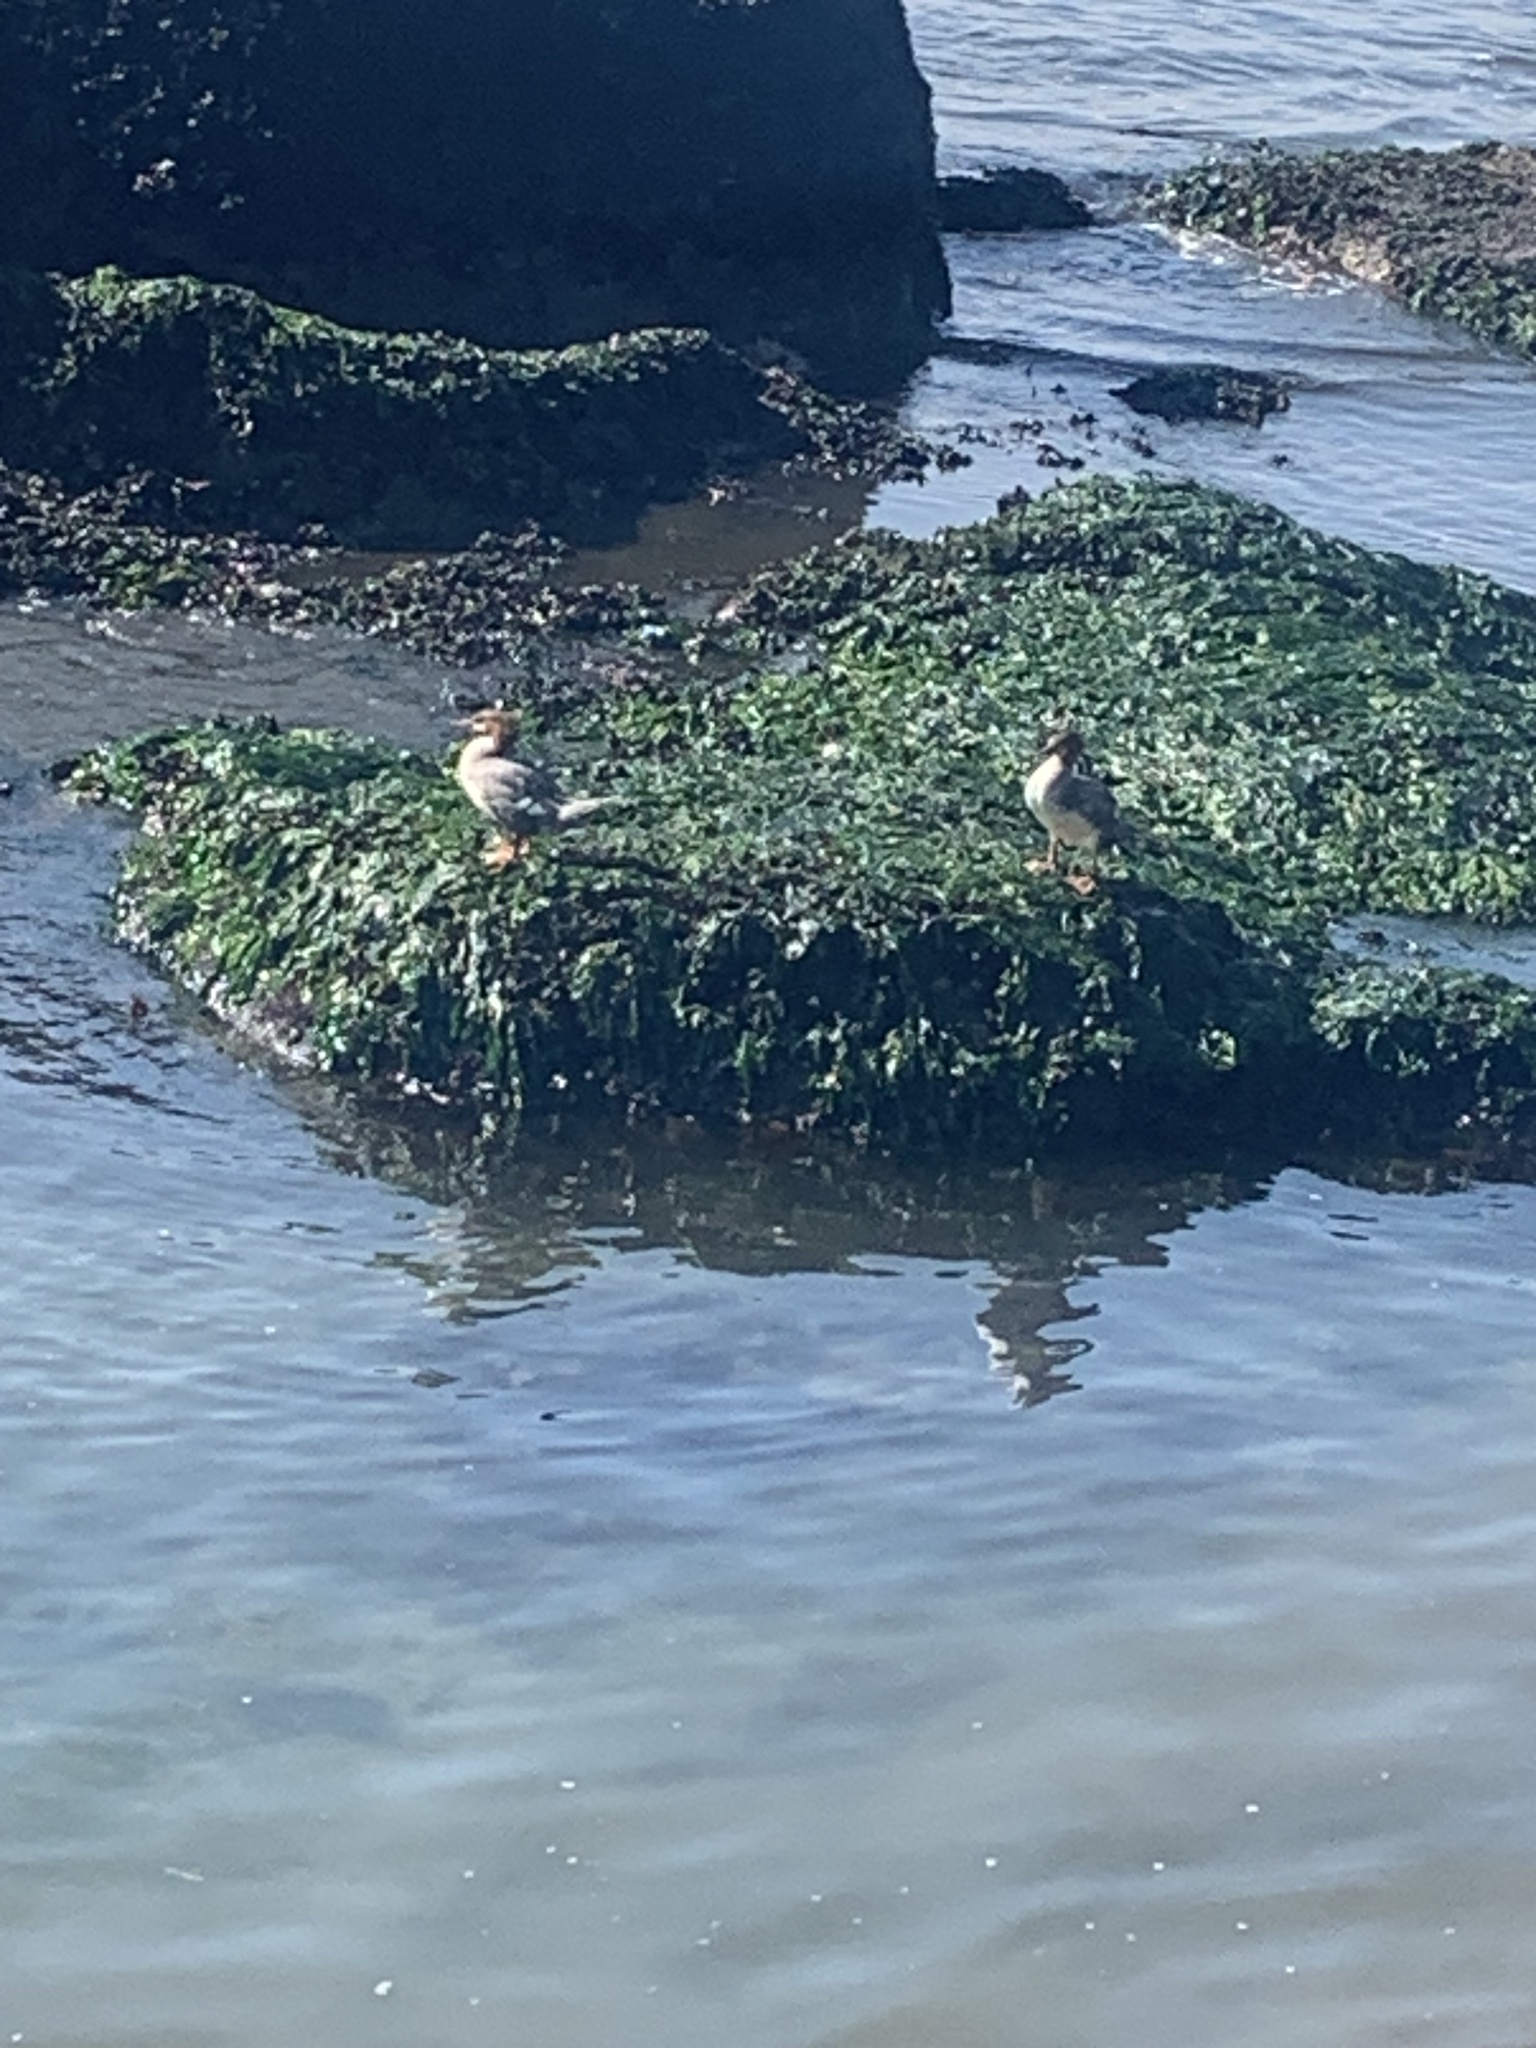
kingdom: Animalia
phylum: Chordata
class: Aves
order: Anseriformes
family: Anatidae
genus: Mergus
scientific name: Mergus merganser
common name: Common merganser
